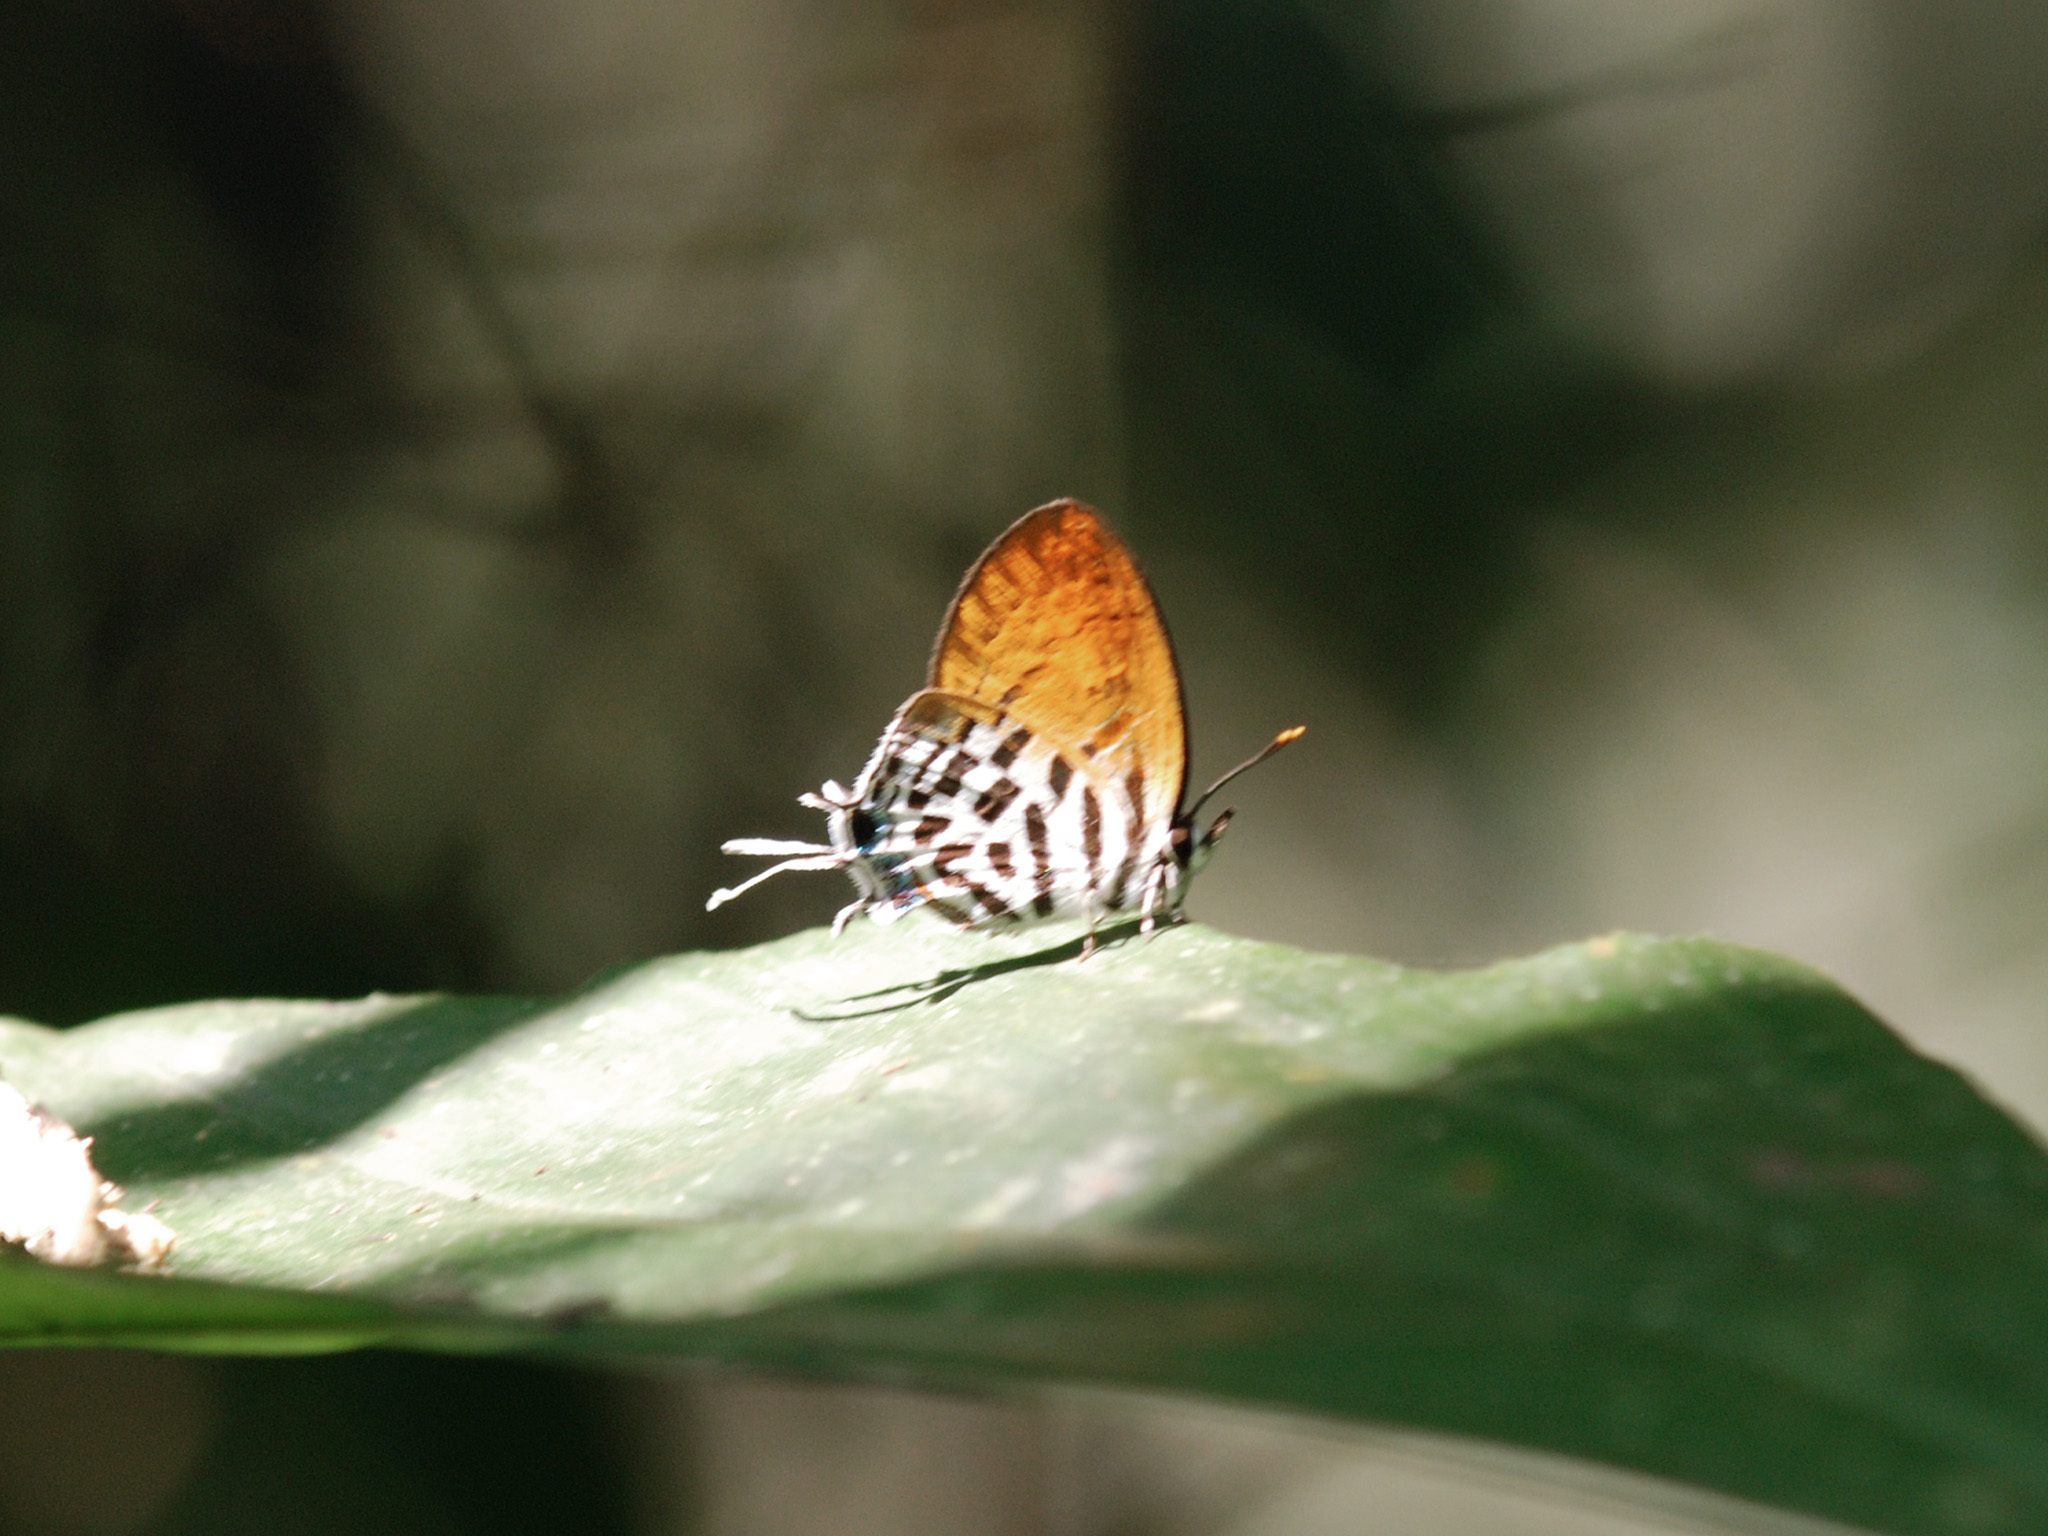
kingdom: Animalia
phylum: Arthropoda
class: Insecta
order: Lepidoptera
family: Lycaenidae
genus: Drupadia
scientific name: Drupadia ravindra
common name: Common posy
